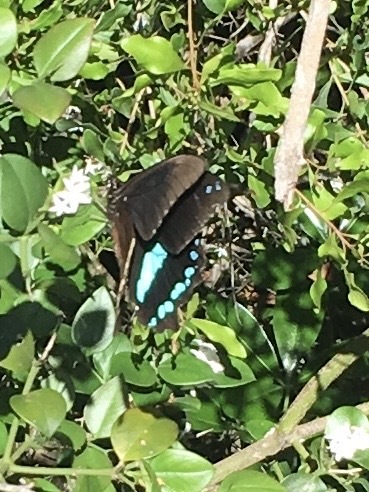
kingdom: Animalia
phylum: Arthropoda
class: Insecta
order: Lepidoptera
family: Papilionidae
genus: Papilio
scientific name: Papilio nireus
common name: Greenbanded swallowtail
